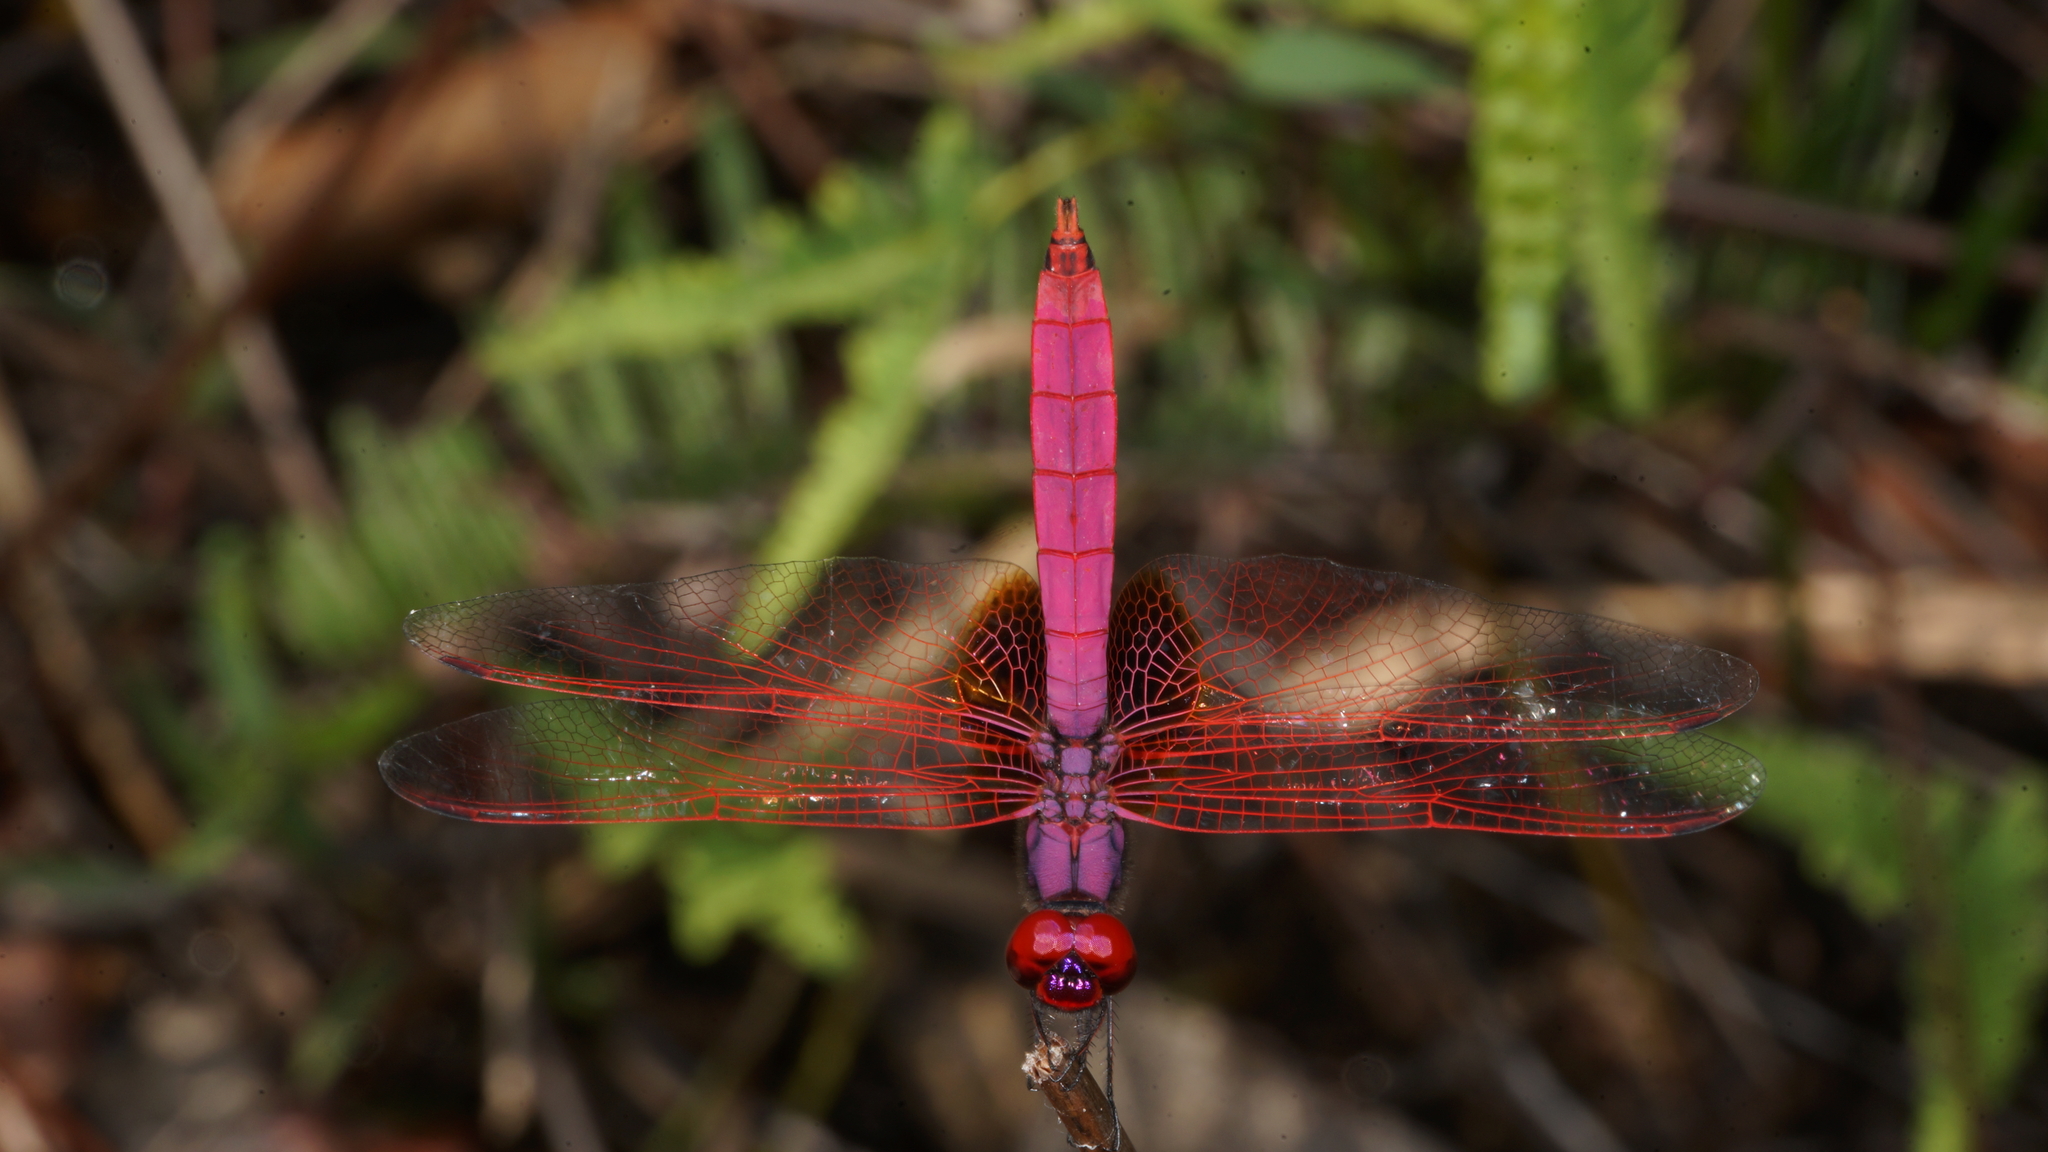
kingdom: Animalia
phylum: Arthropoda
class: Insecta
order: Odonata
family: Libellulidae
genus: Trithemis
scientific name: Trithemis aurora
